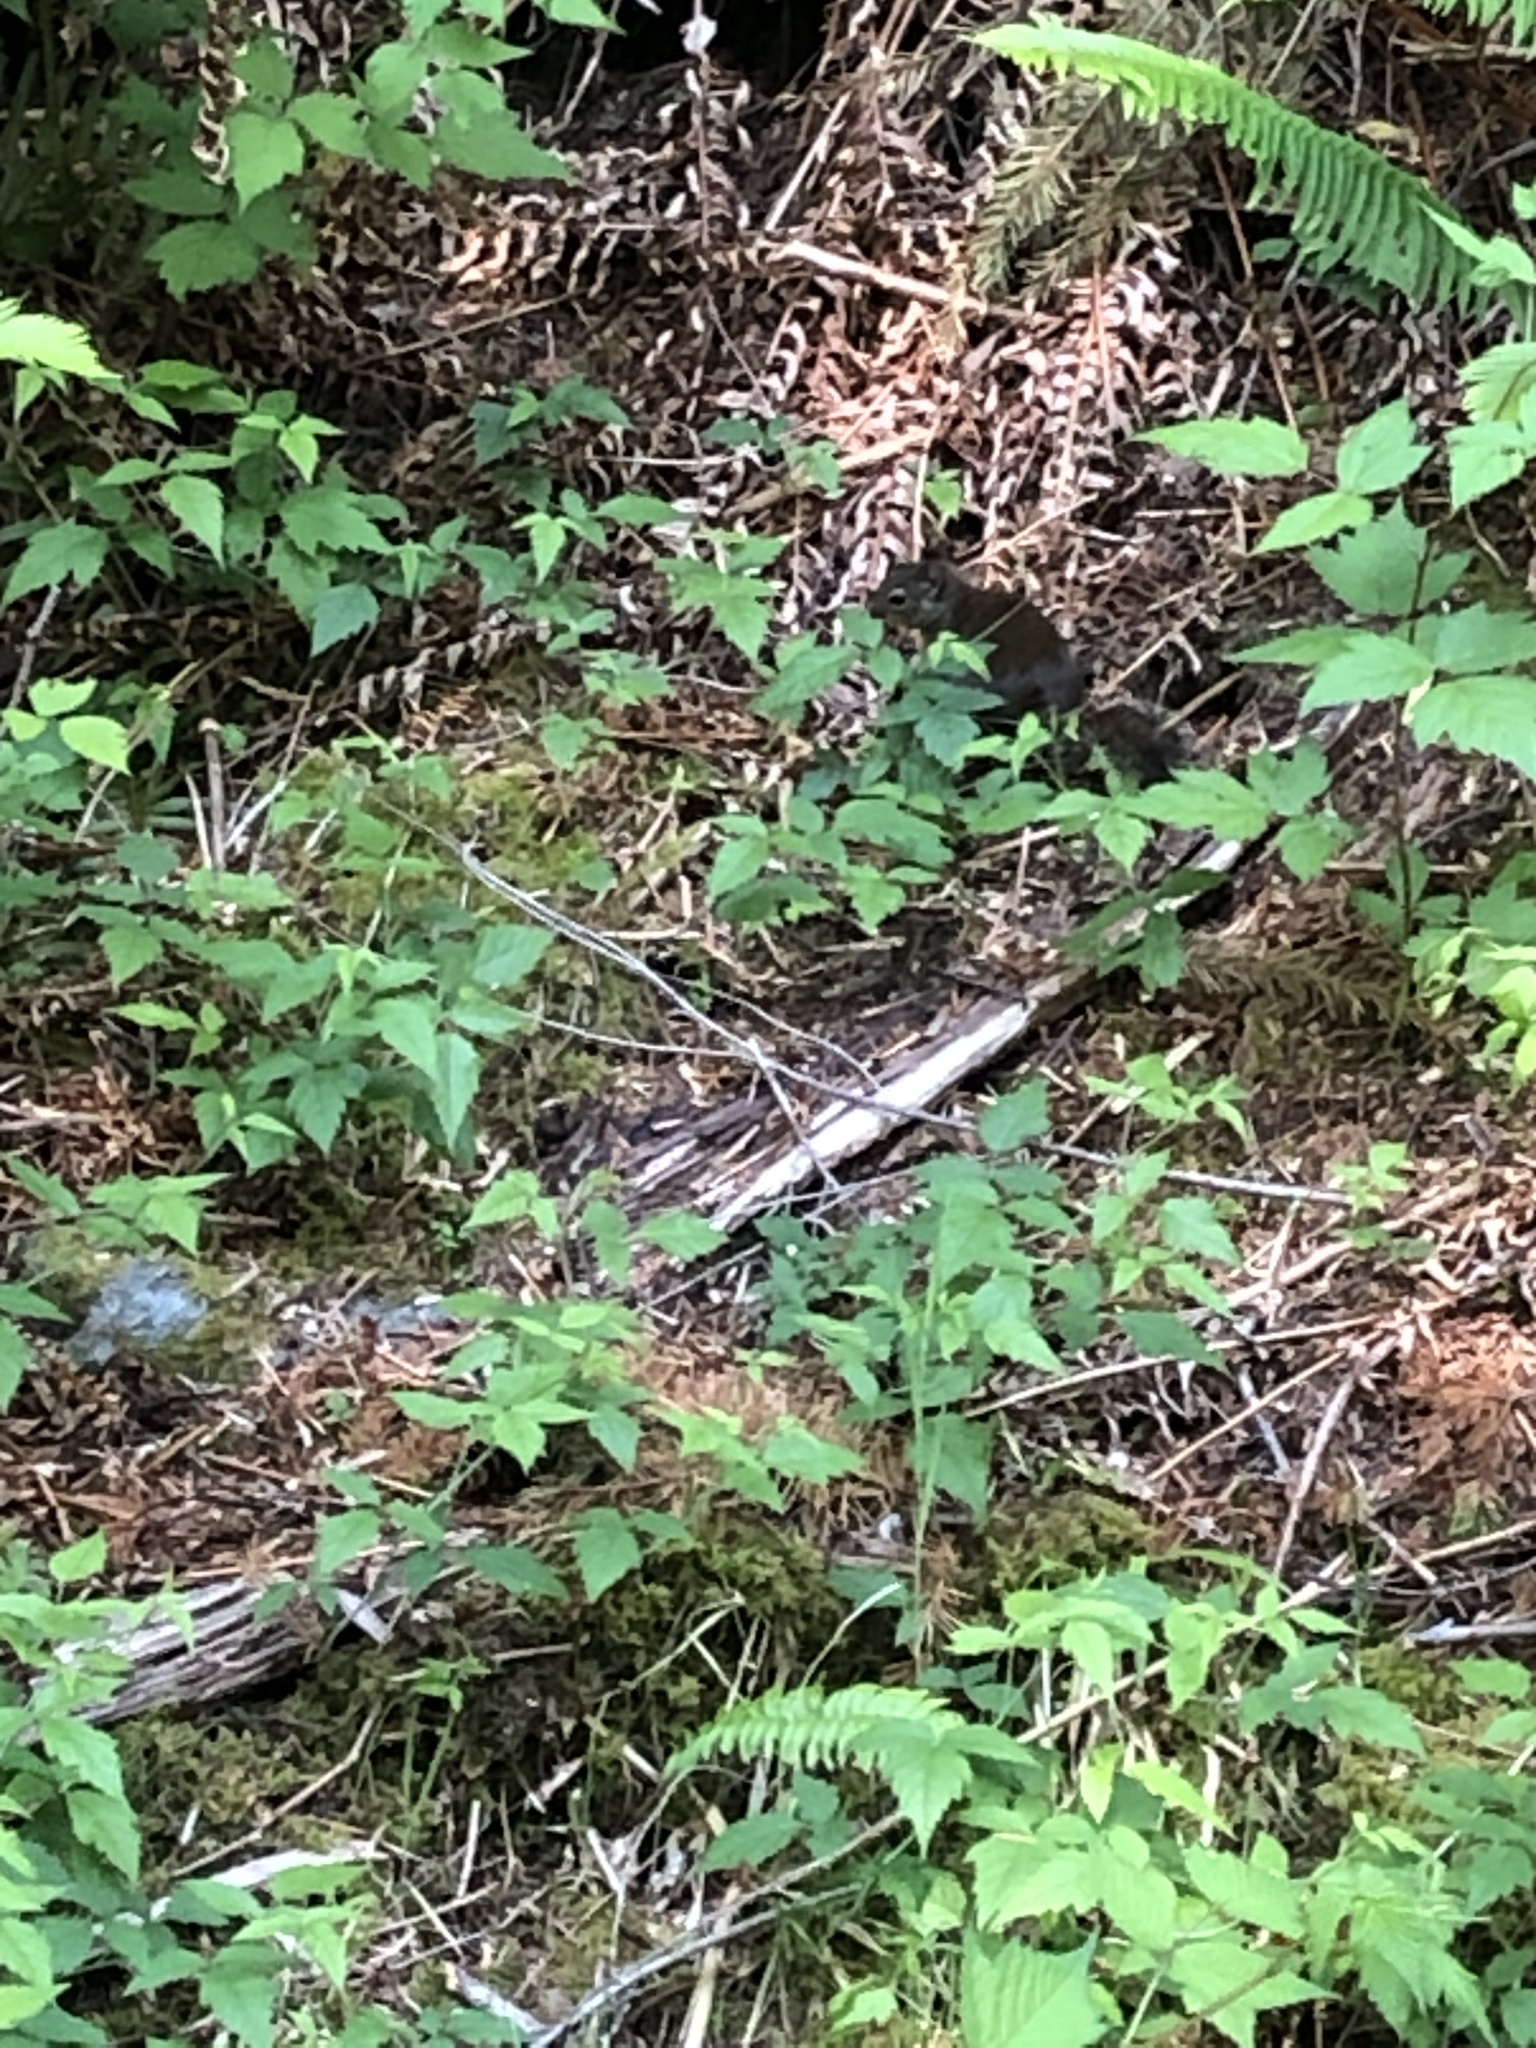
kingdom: Animalia
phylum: Chordata
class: Mammalia
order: Rodentia
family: Sciuridae
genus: Tamiasciurus
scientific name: Tamiasciurus douglasii
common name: Douglas's squirrel
